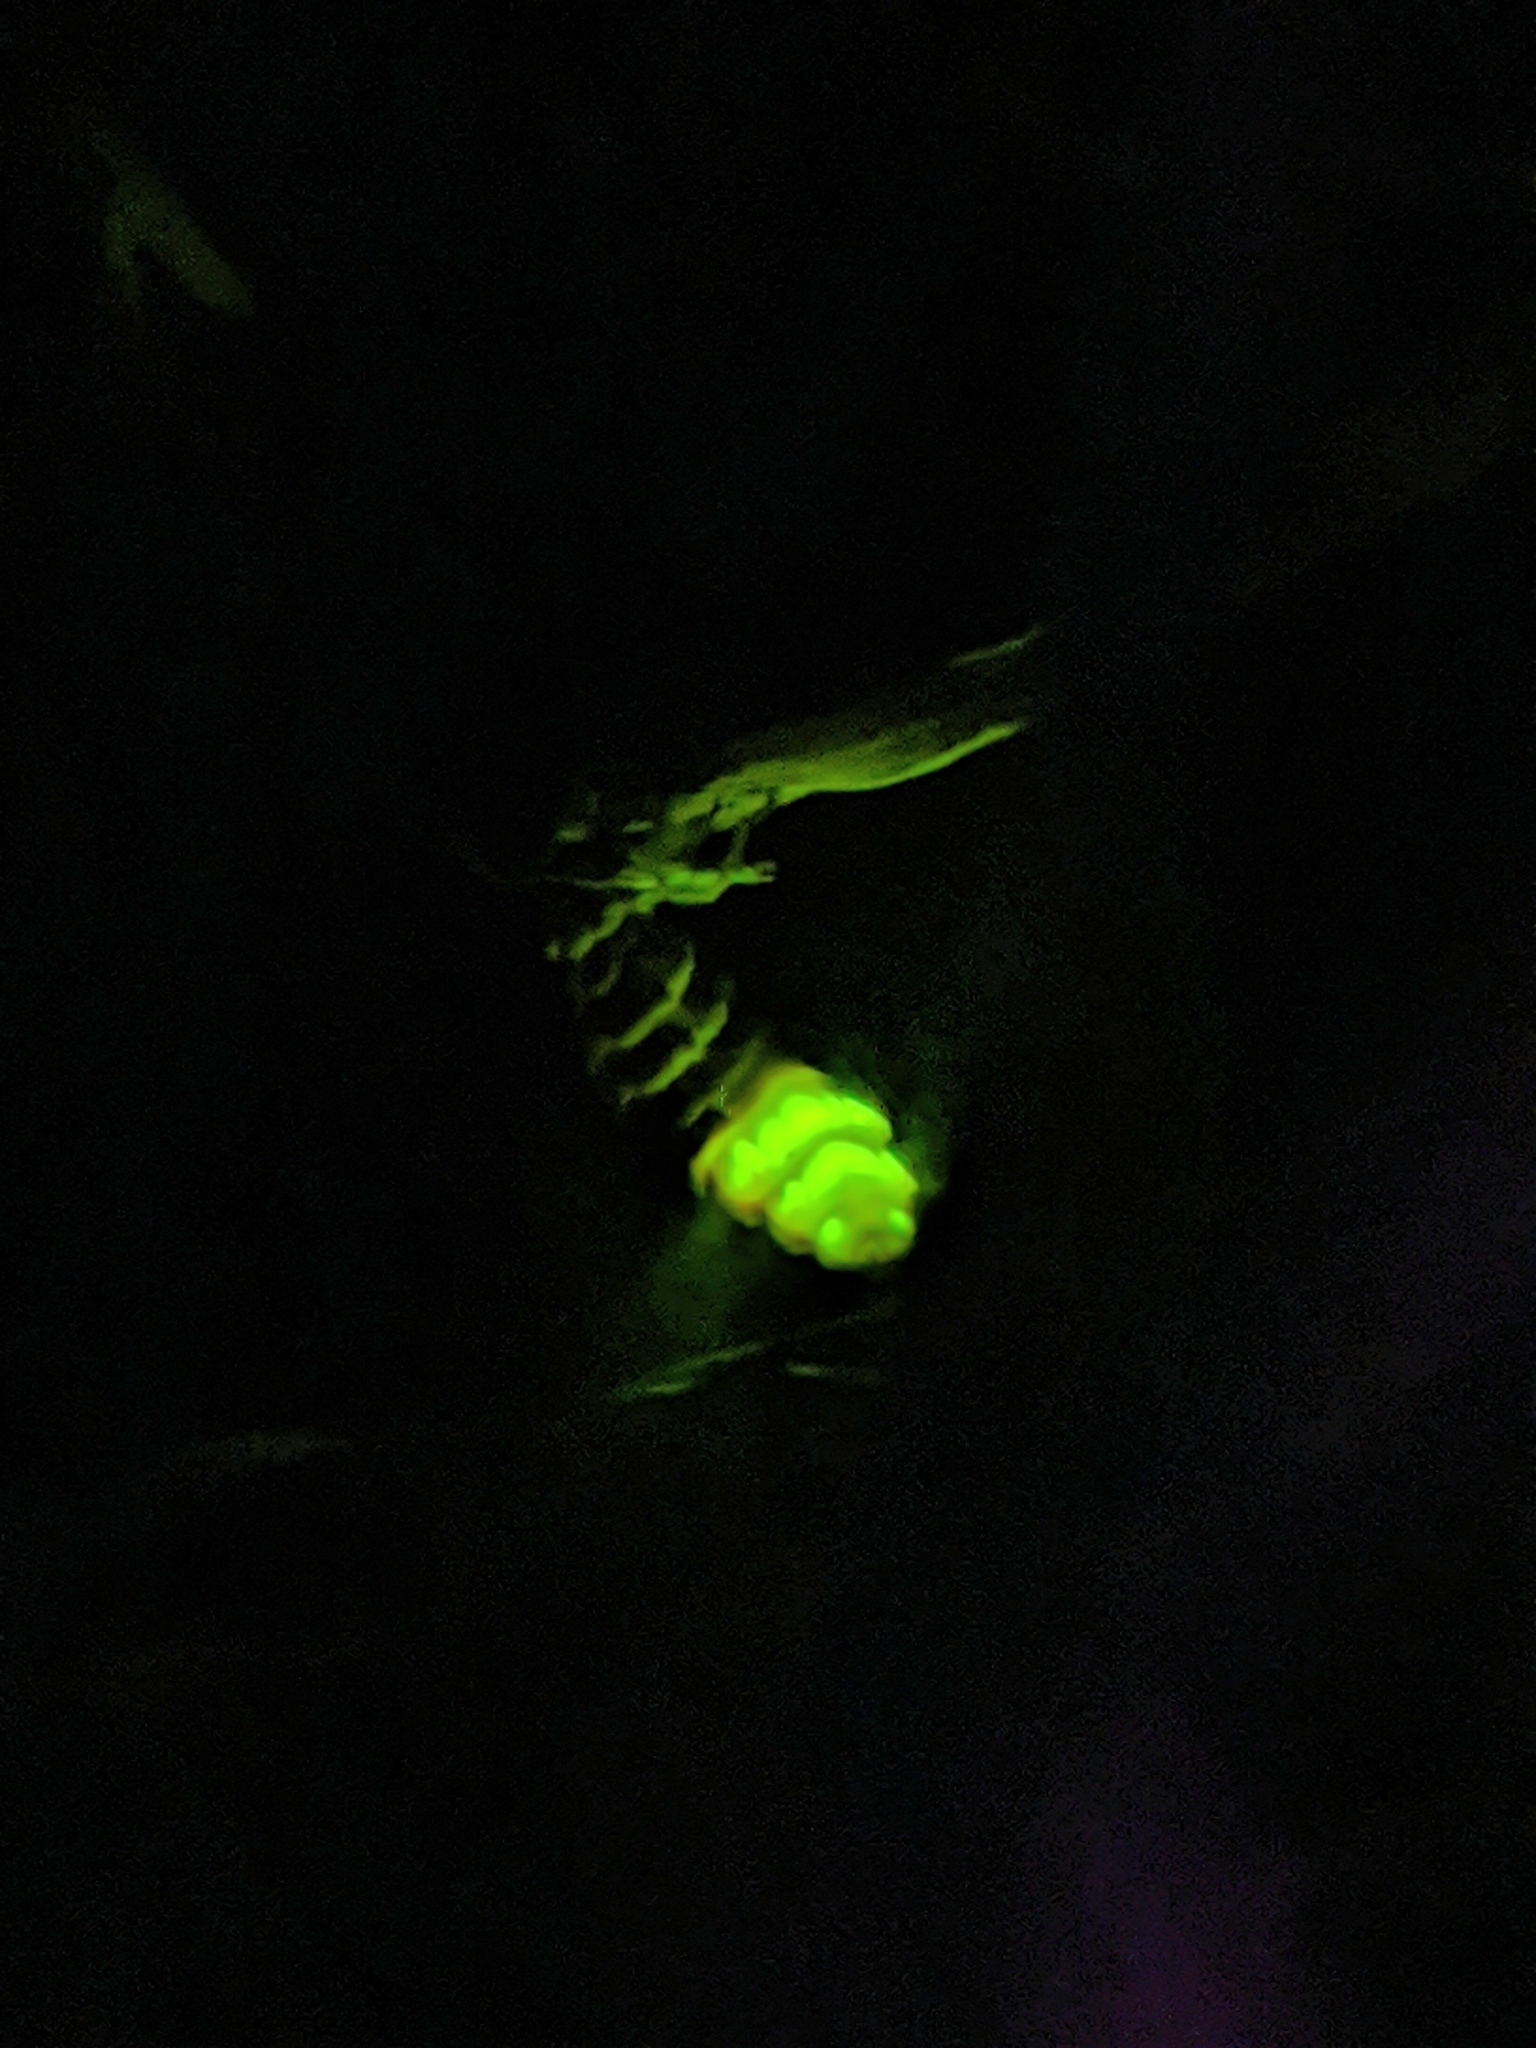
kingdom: Animalia
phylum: Arthropoda
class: Insecta
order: Coleoptera
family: Lampyridae
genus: Lampyris
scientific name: Lampyris noctiluca
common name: Glow-worm
